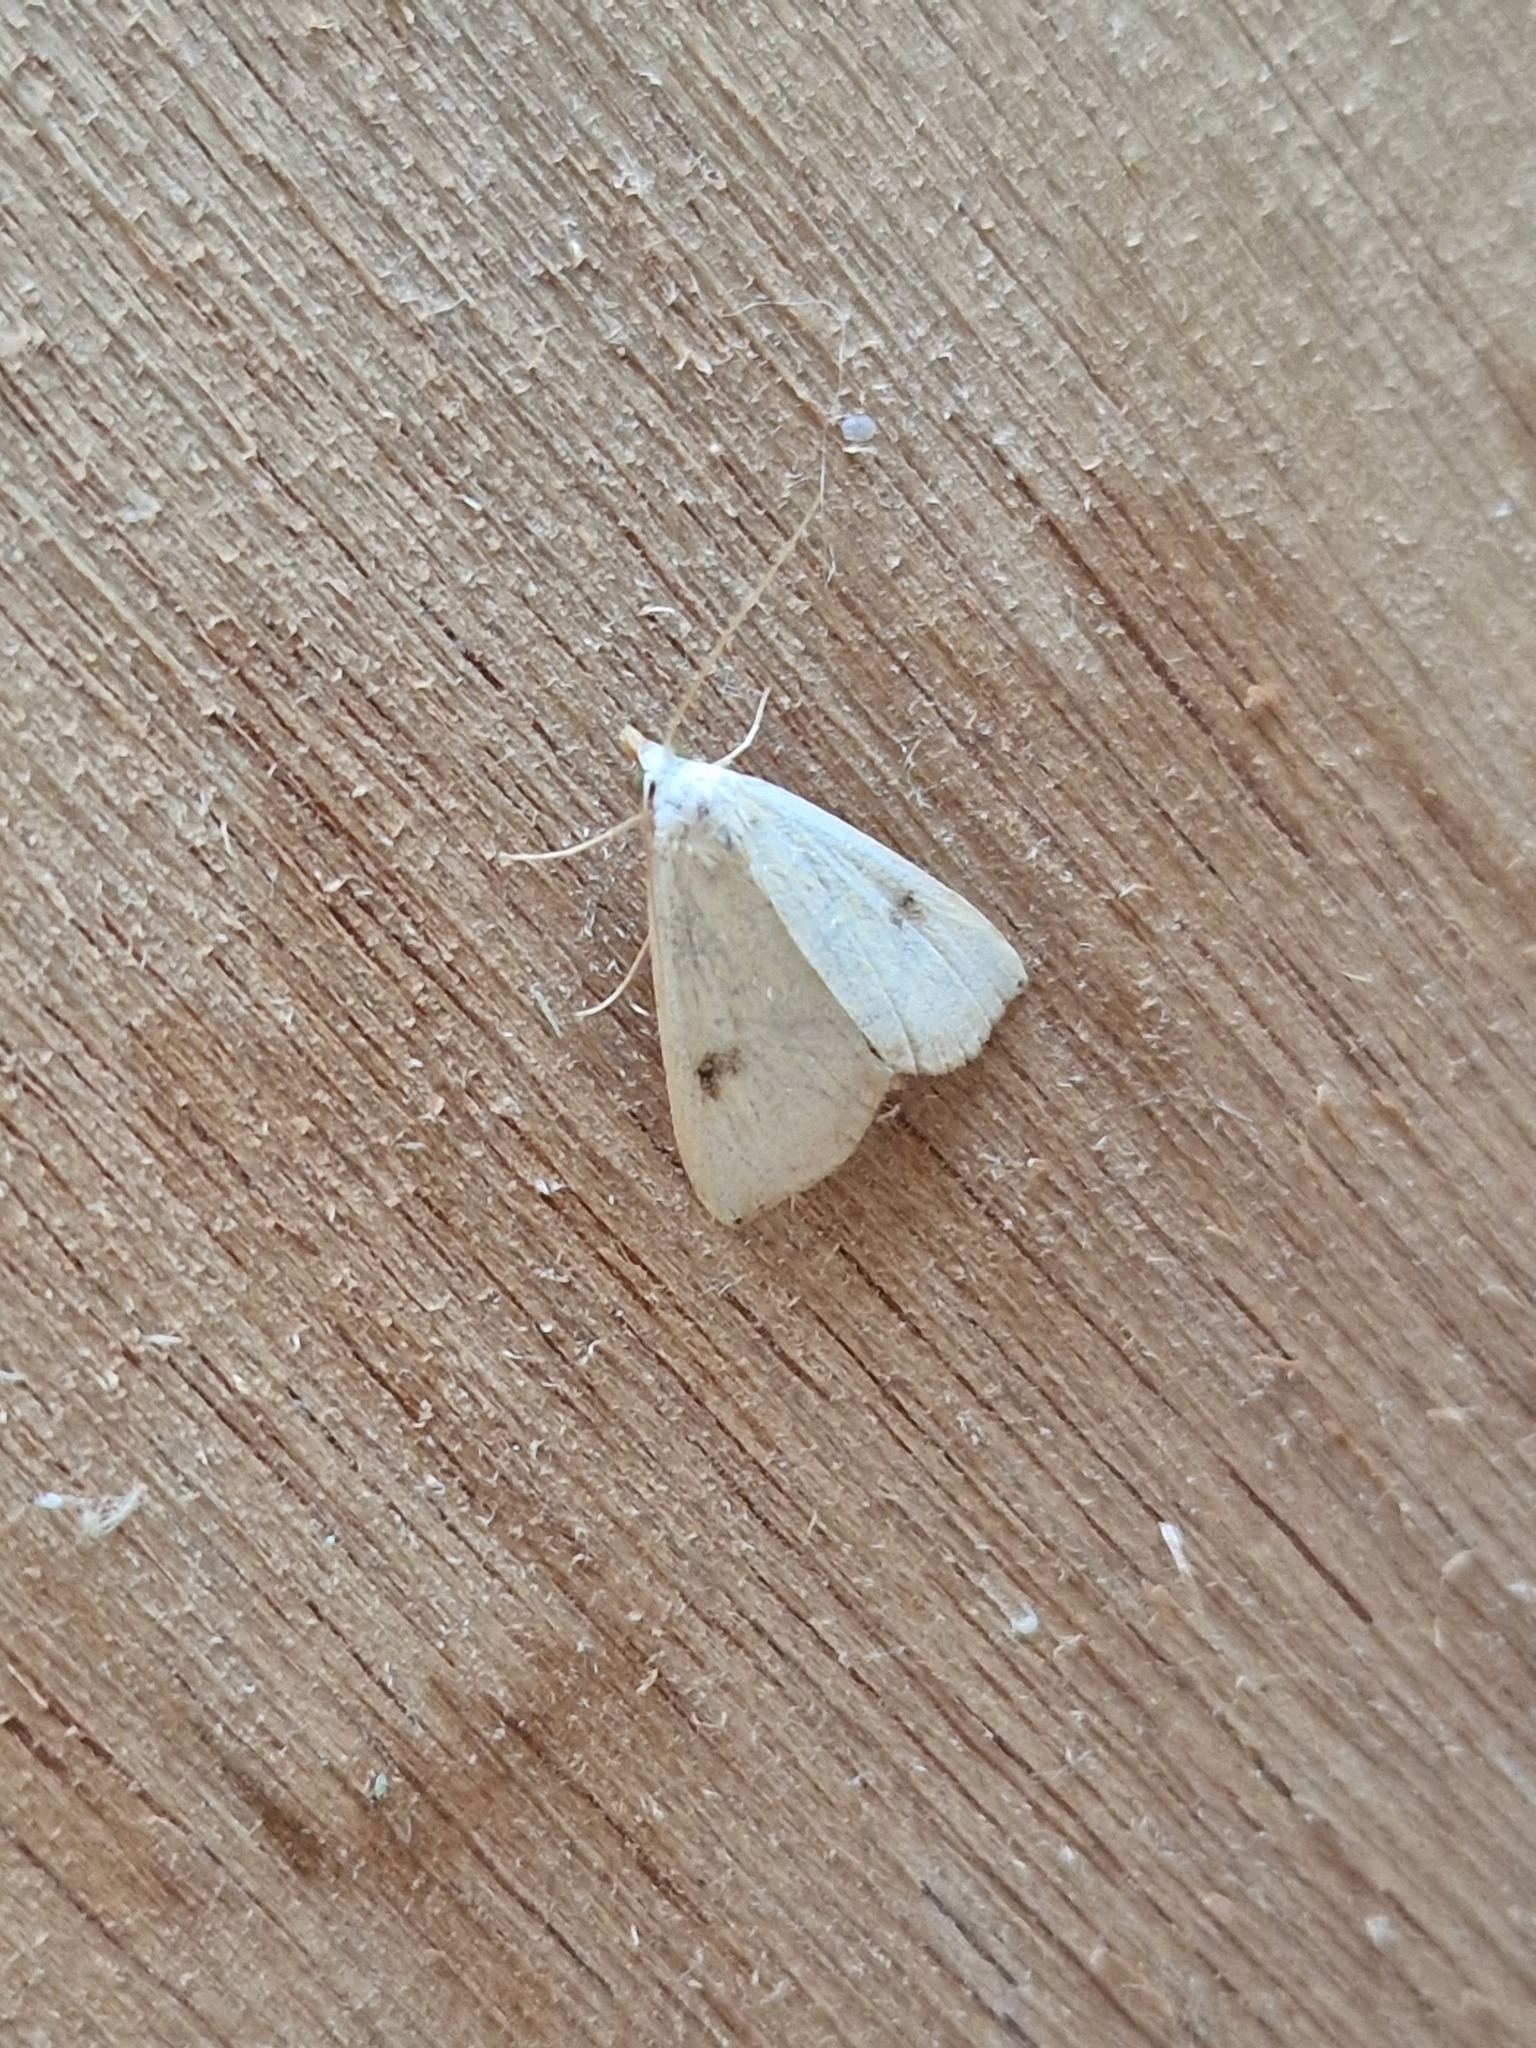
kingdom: Animalia
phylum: Arthropoda
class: Insecta
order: Lepidoptera
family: Erebidae
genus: Rivula
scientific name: Rivula sericealis
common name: Straw dot
